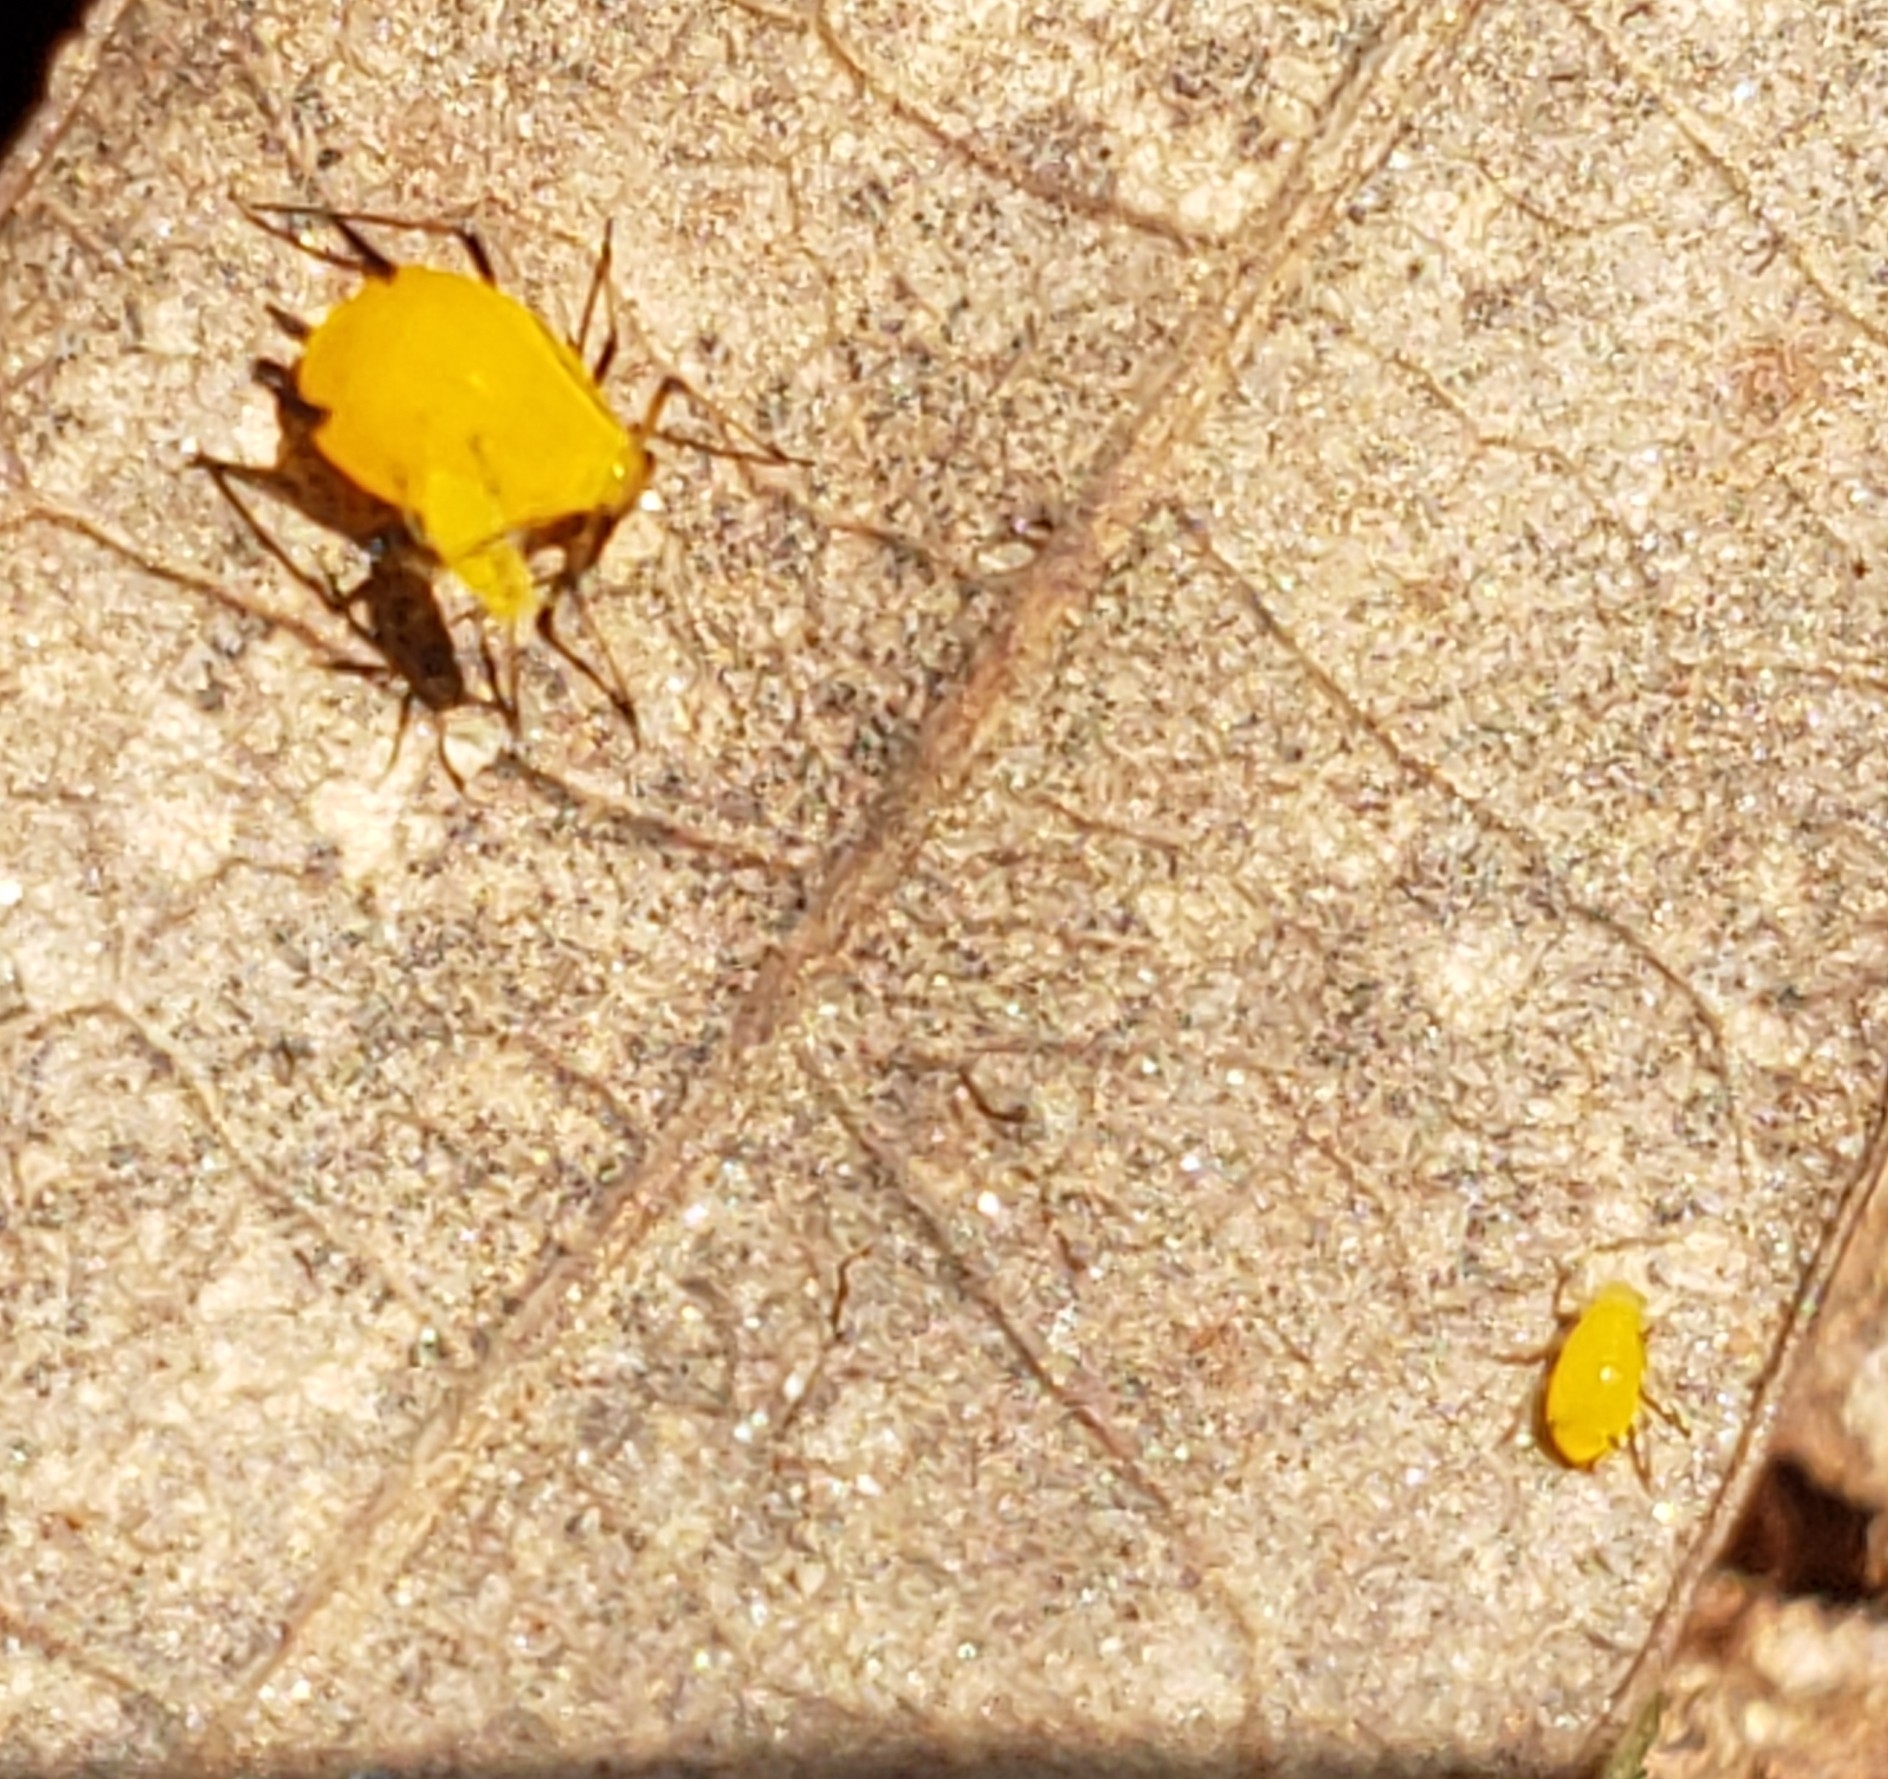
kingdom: Animalia
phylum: Arthropoda
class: Insecta
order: Hemiptera
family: Aphididae
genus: Aphis
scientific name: Aphis nerii
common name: Oleander aphid
